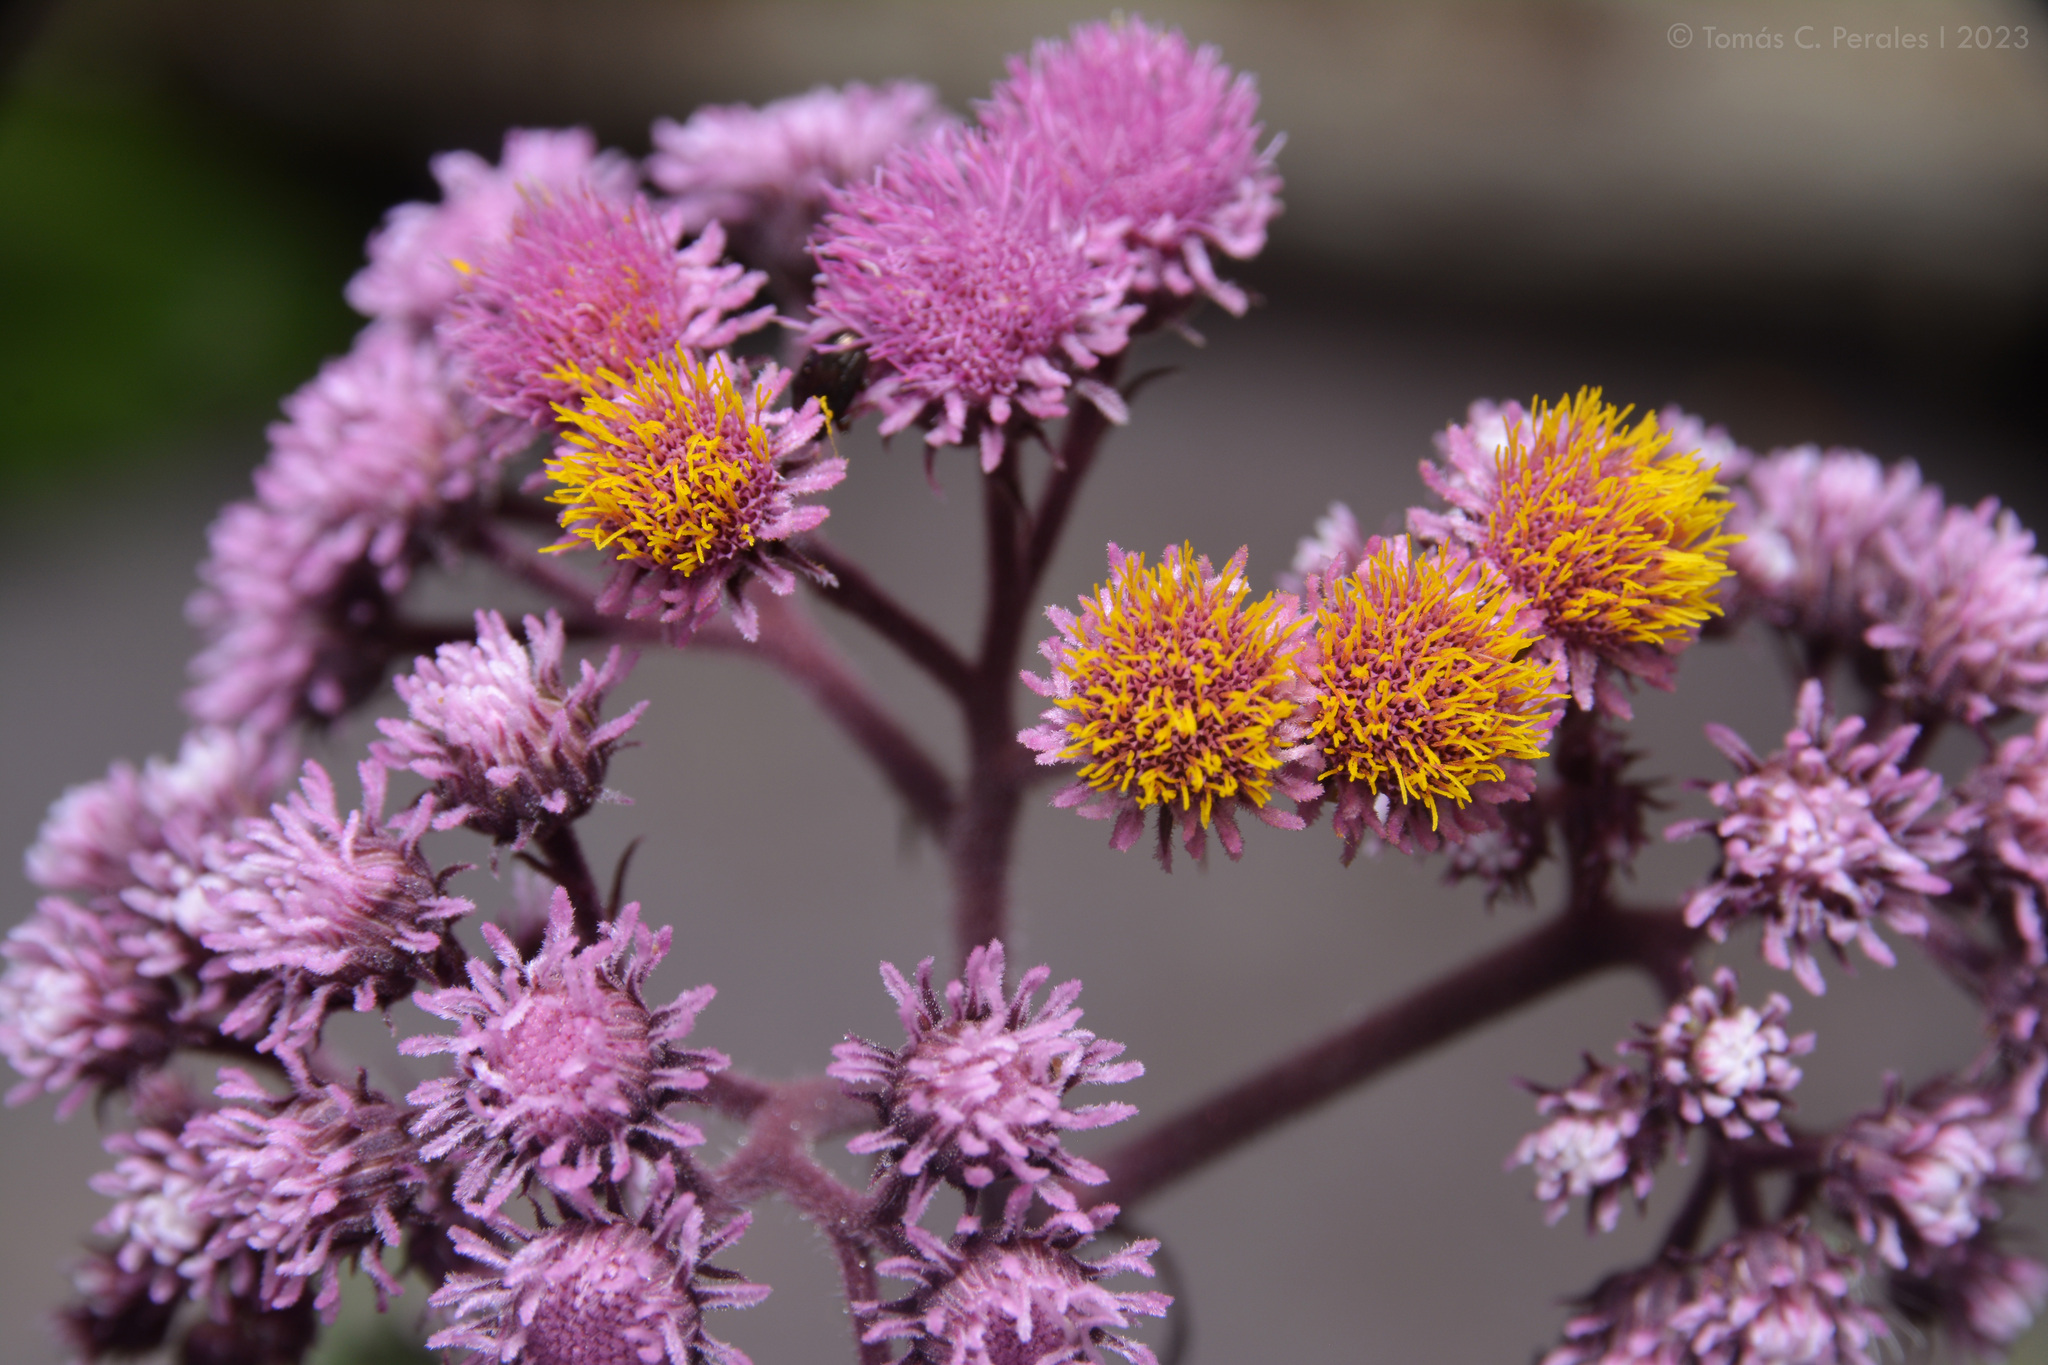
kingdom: Plantae
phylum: Tracheophyta
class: Magnoliopsida
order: Asterales
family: Asteraceae
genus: Urolepis
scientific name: Urolepis hecatantha
